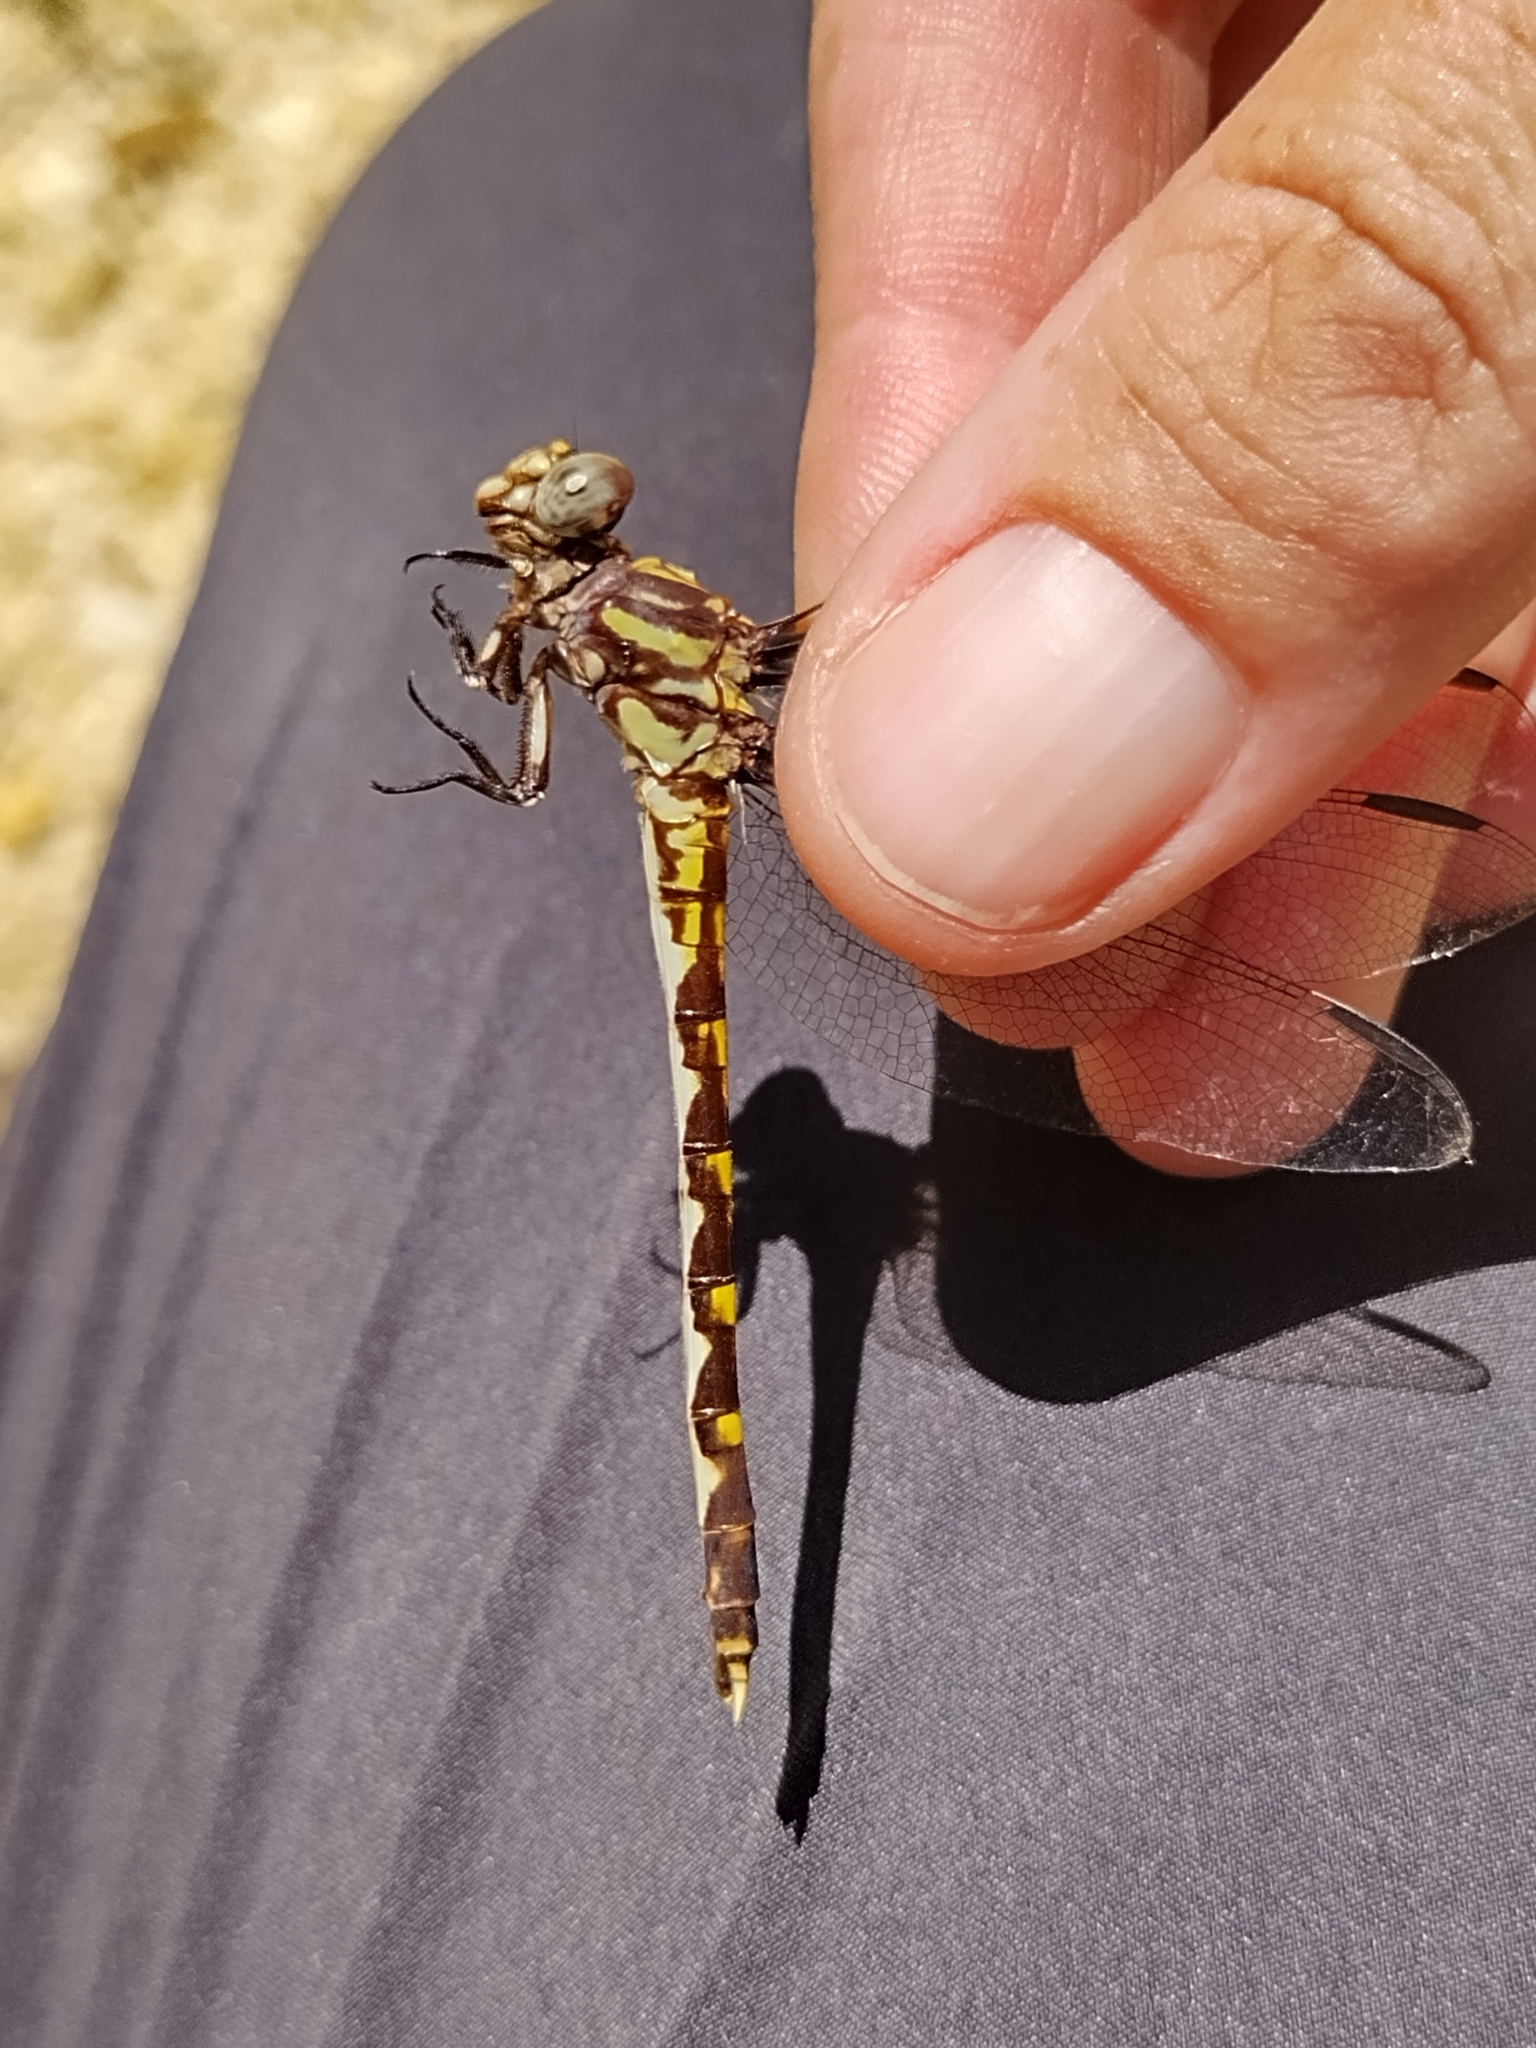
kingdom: Animalia
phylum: Arthropoda
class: Insecta
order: Odonata
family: Gomphidae
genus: Progomphus
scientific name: Progomphus obscurus
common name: Common sanddragon
